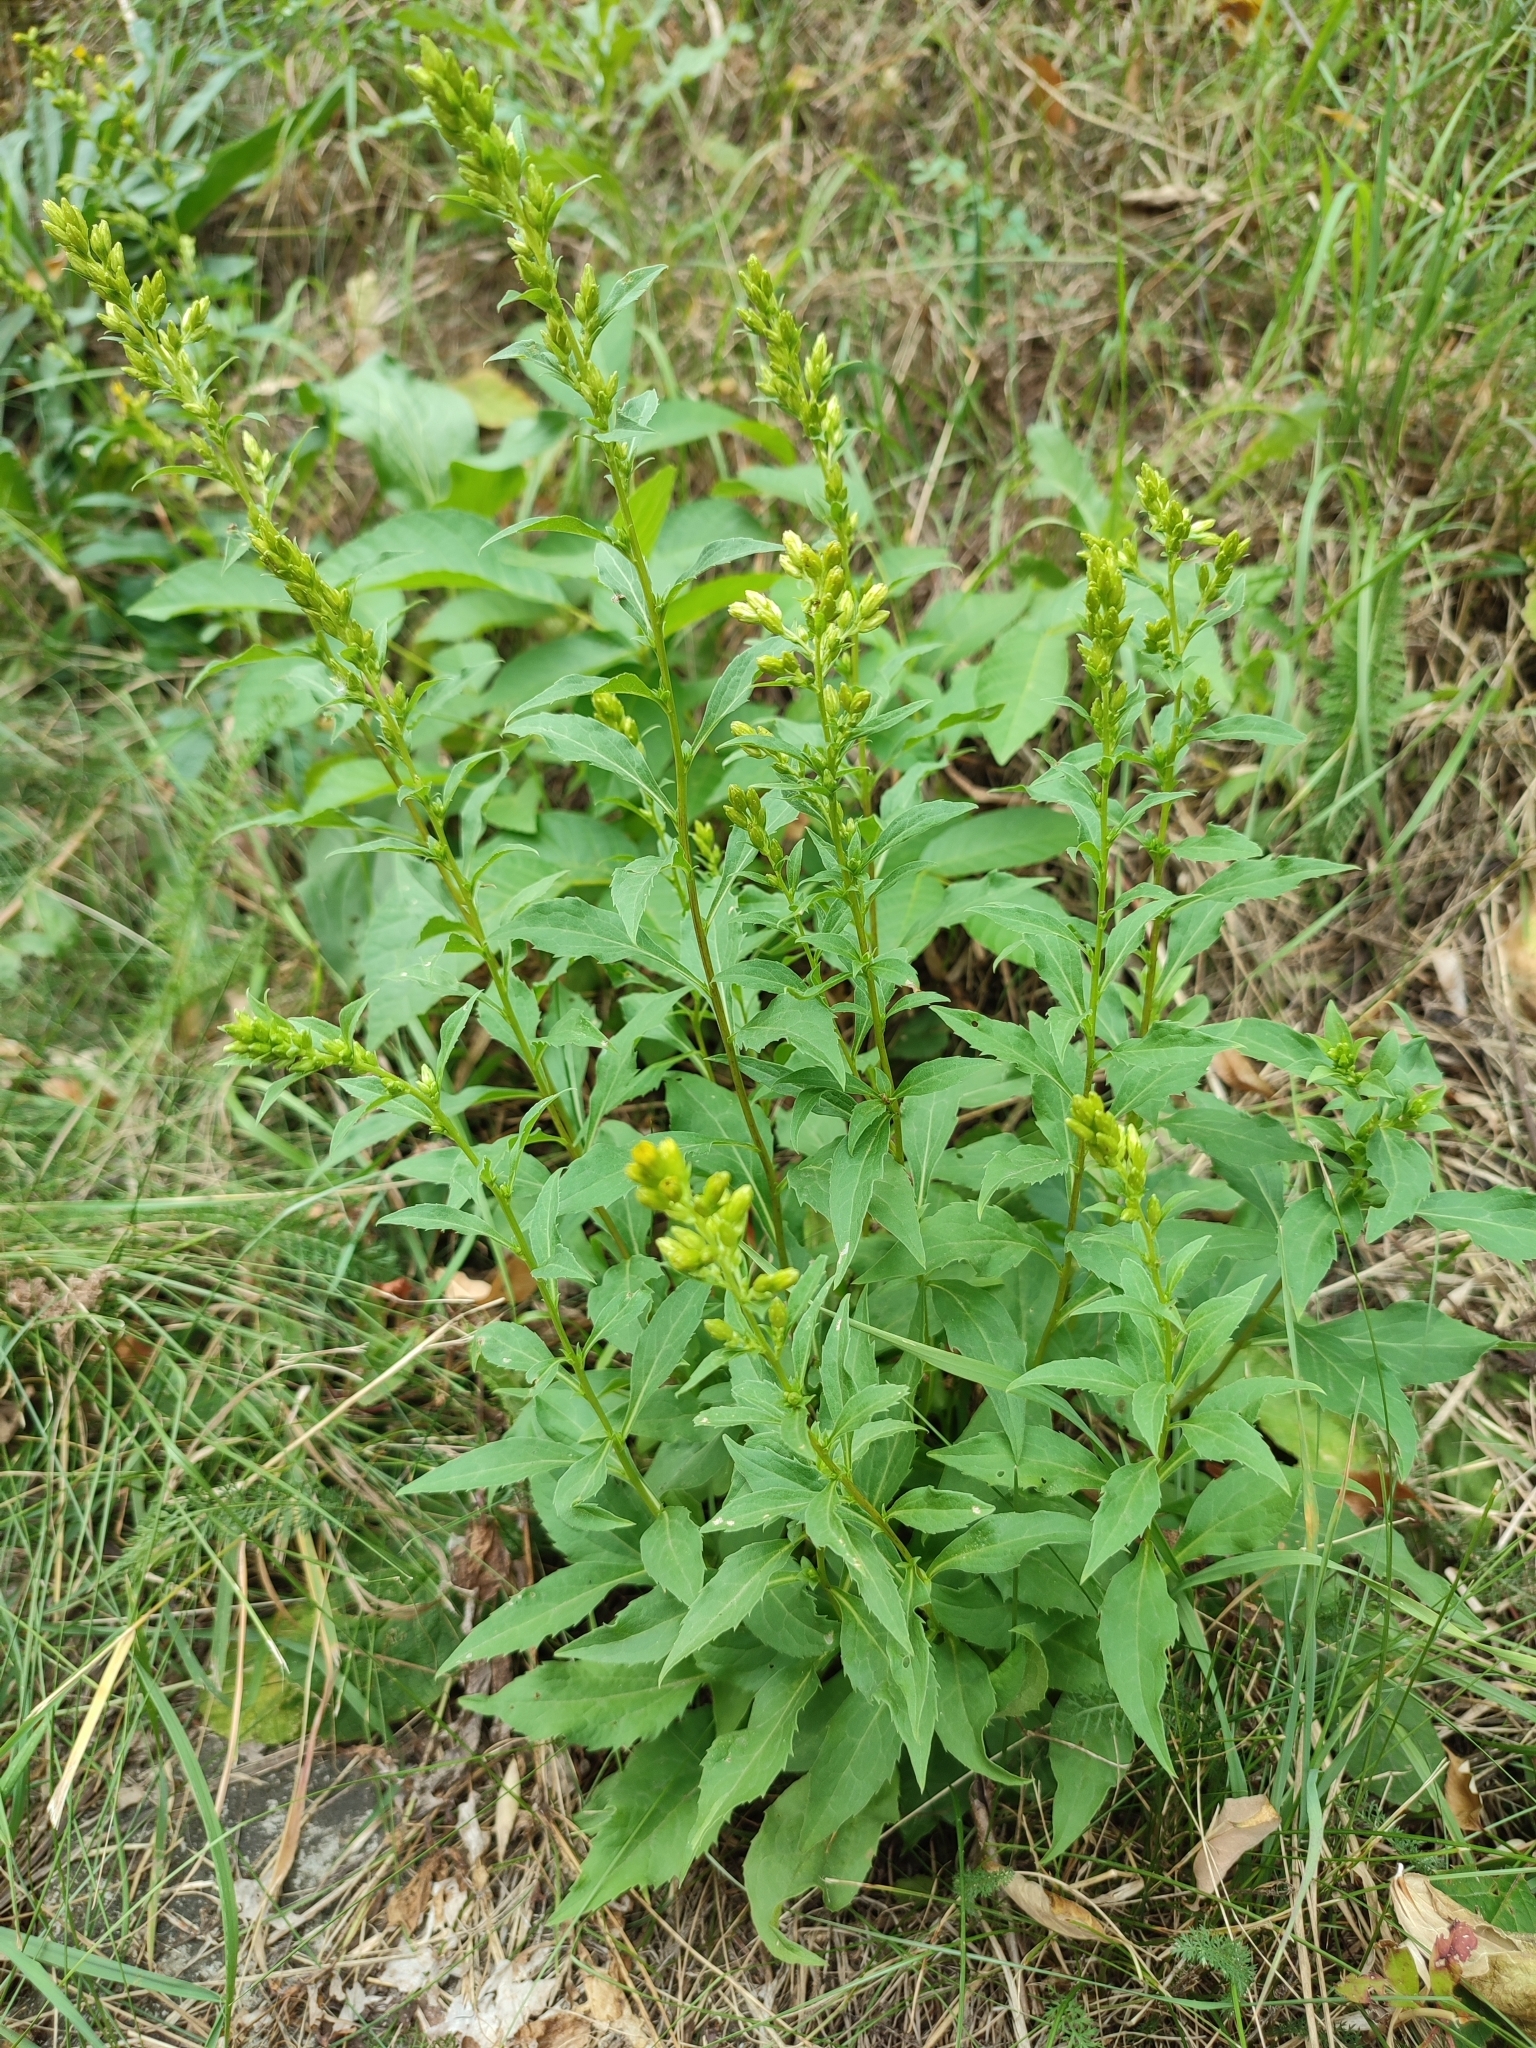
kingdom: Plantae
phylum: Tracheophyta
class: Magnoliopsida
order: Asterales
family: Asteraceae
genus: Solidago
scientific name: Solidago virgaurea
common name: Goldenrod
